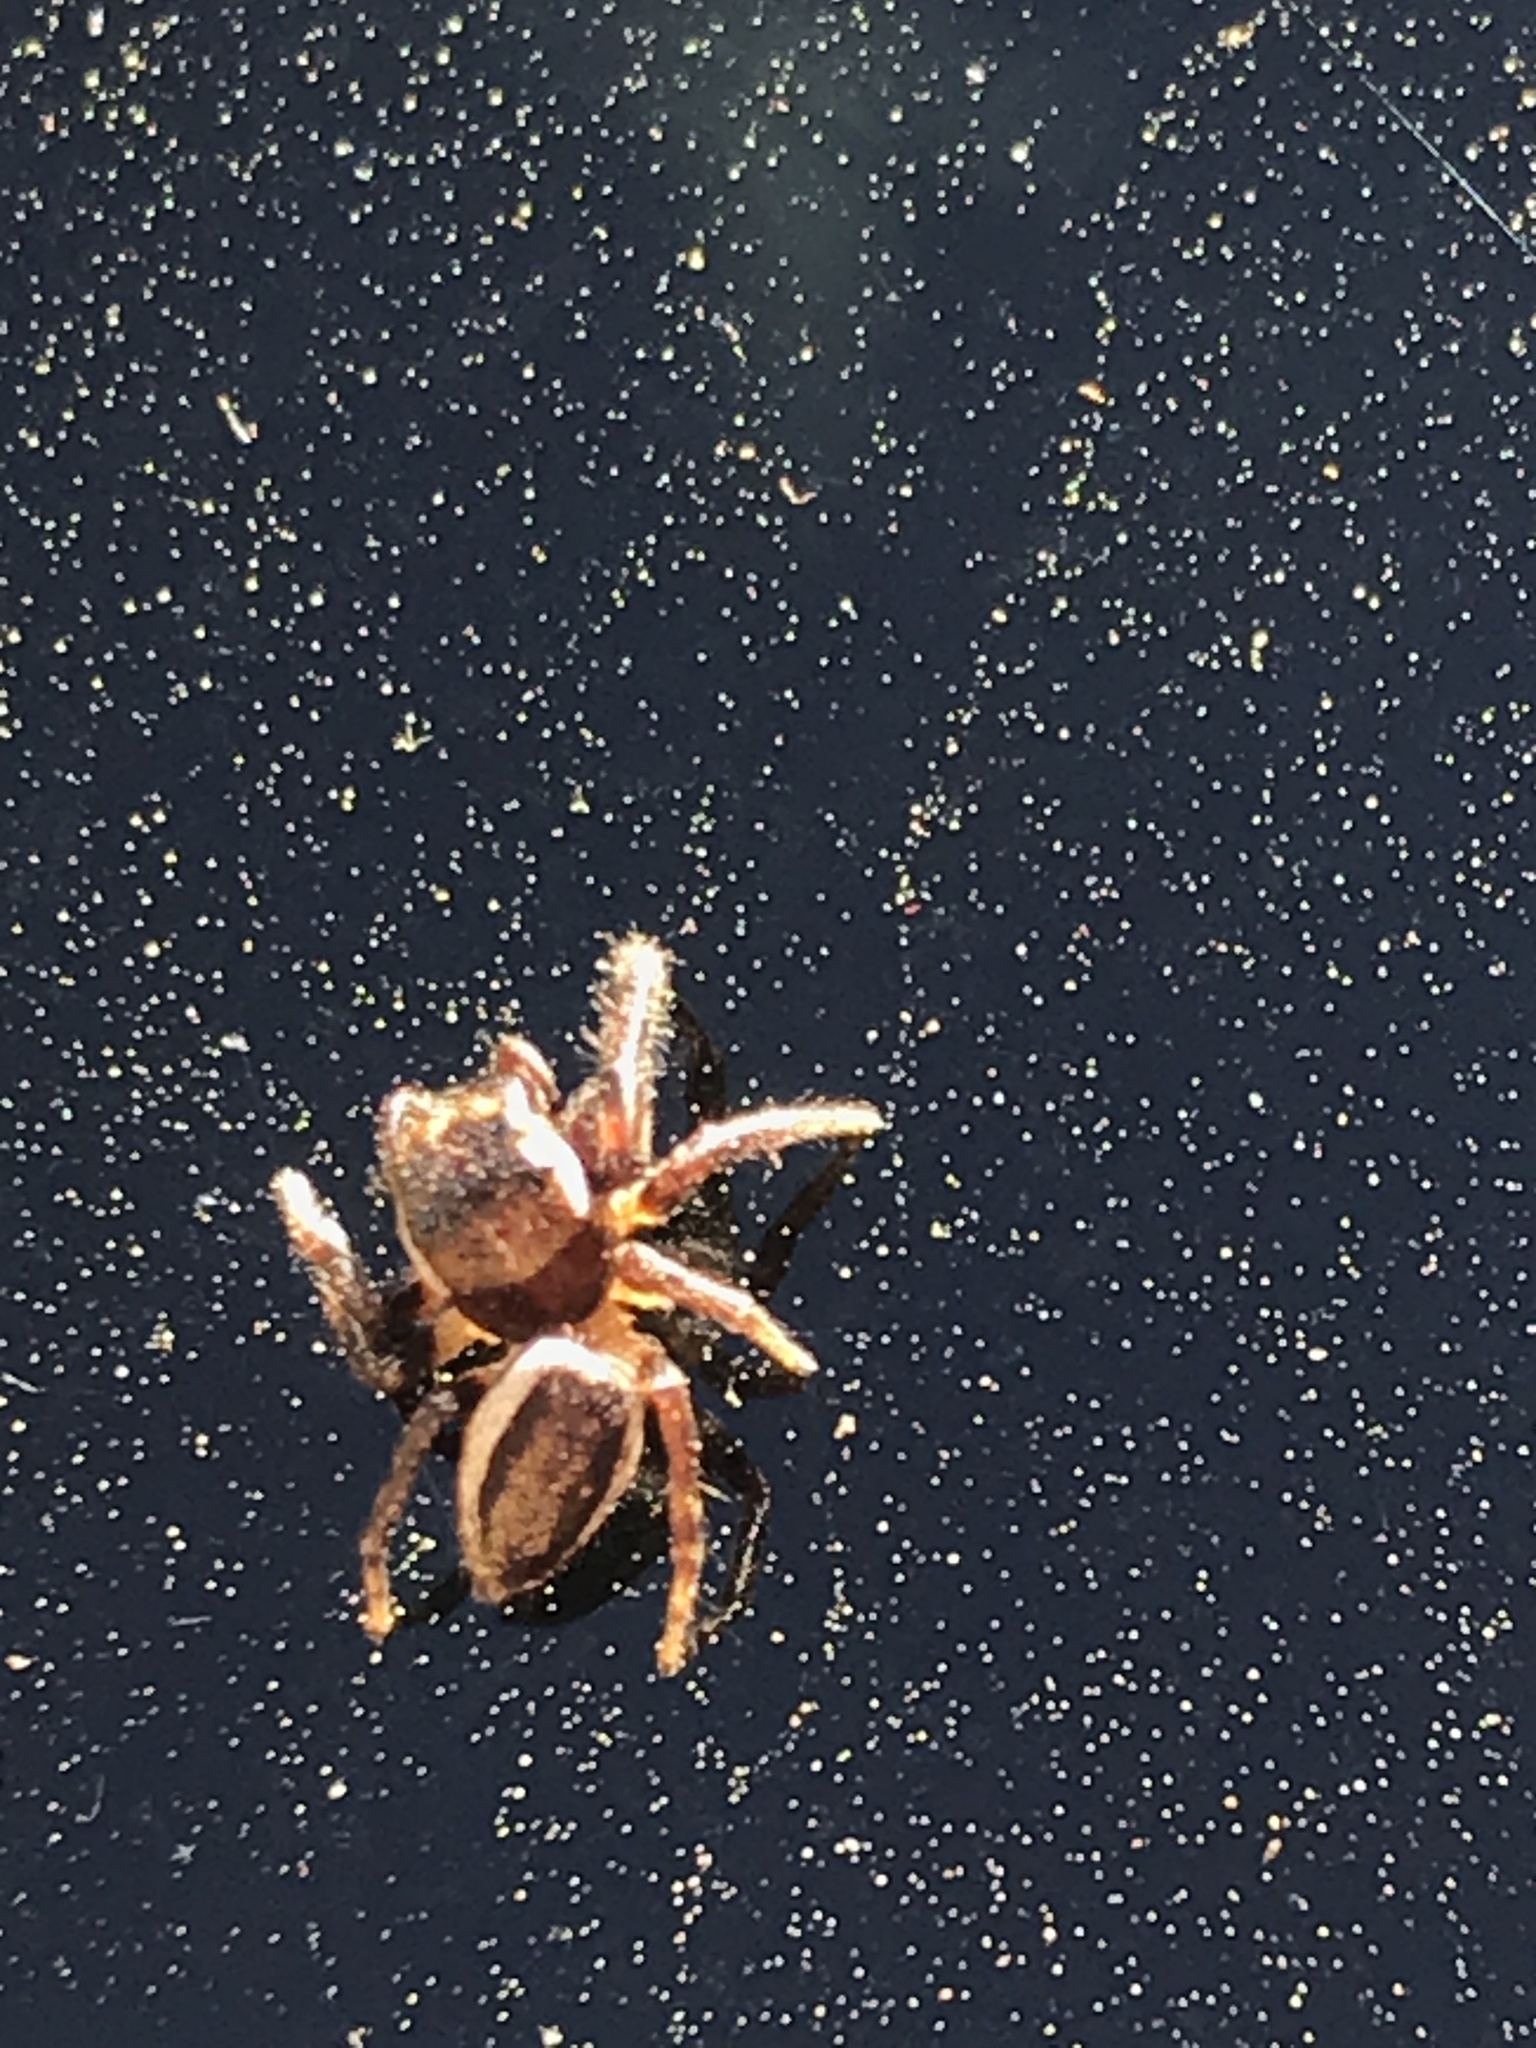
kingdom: Animalia
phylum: Arthropoda
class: Arachnida
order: Araneae
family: Salticidae
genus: Eris
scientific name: Eris militaris
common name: Bronze jumper
